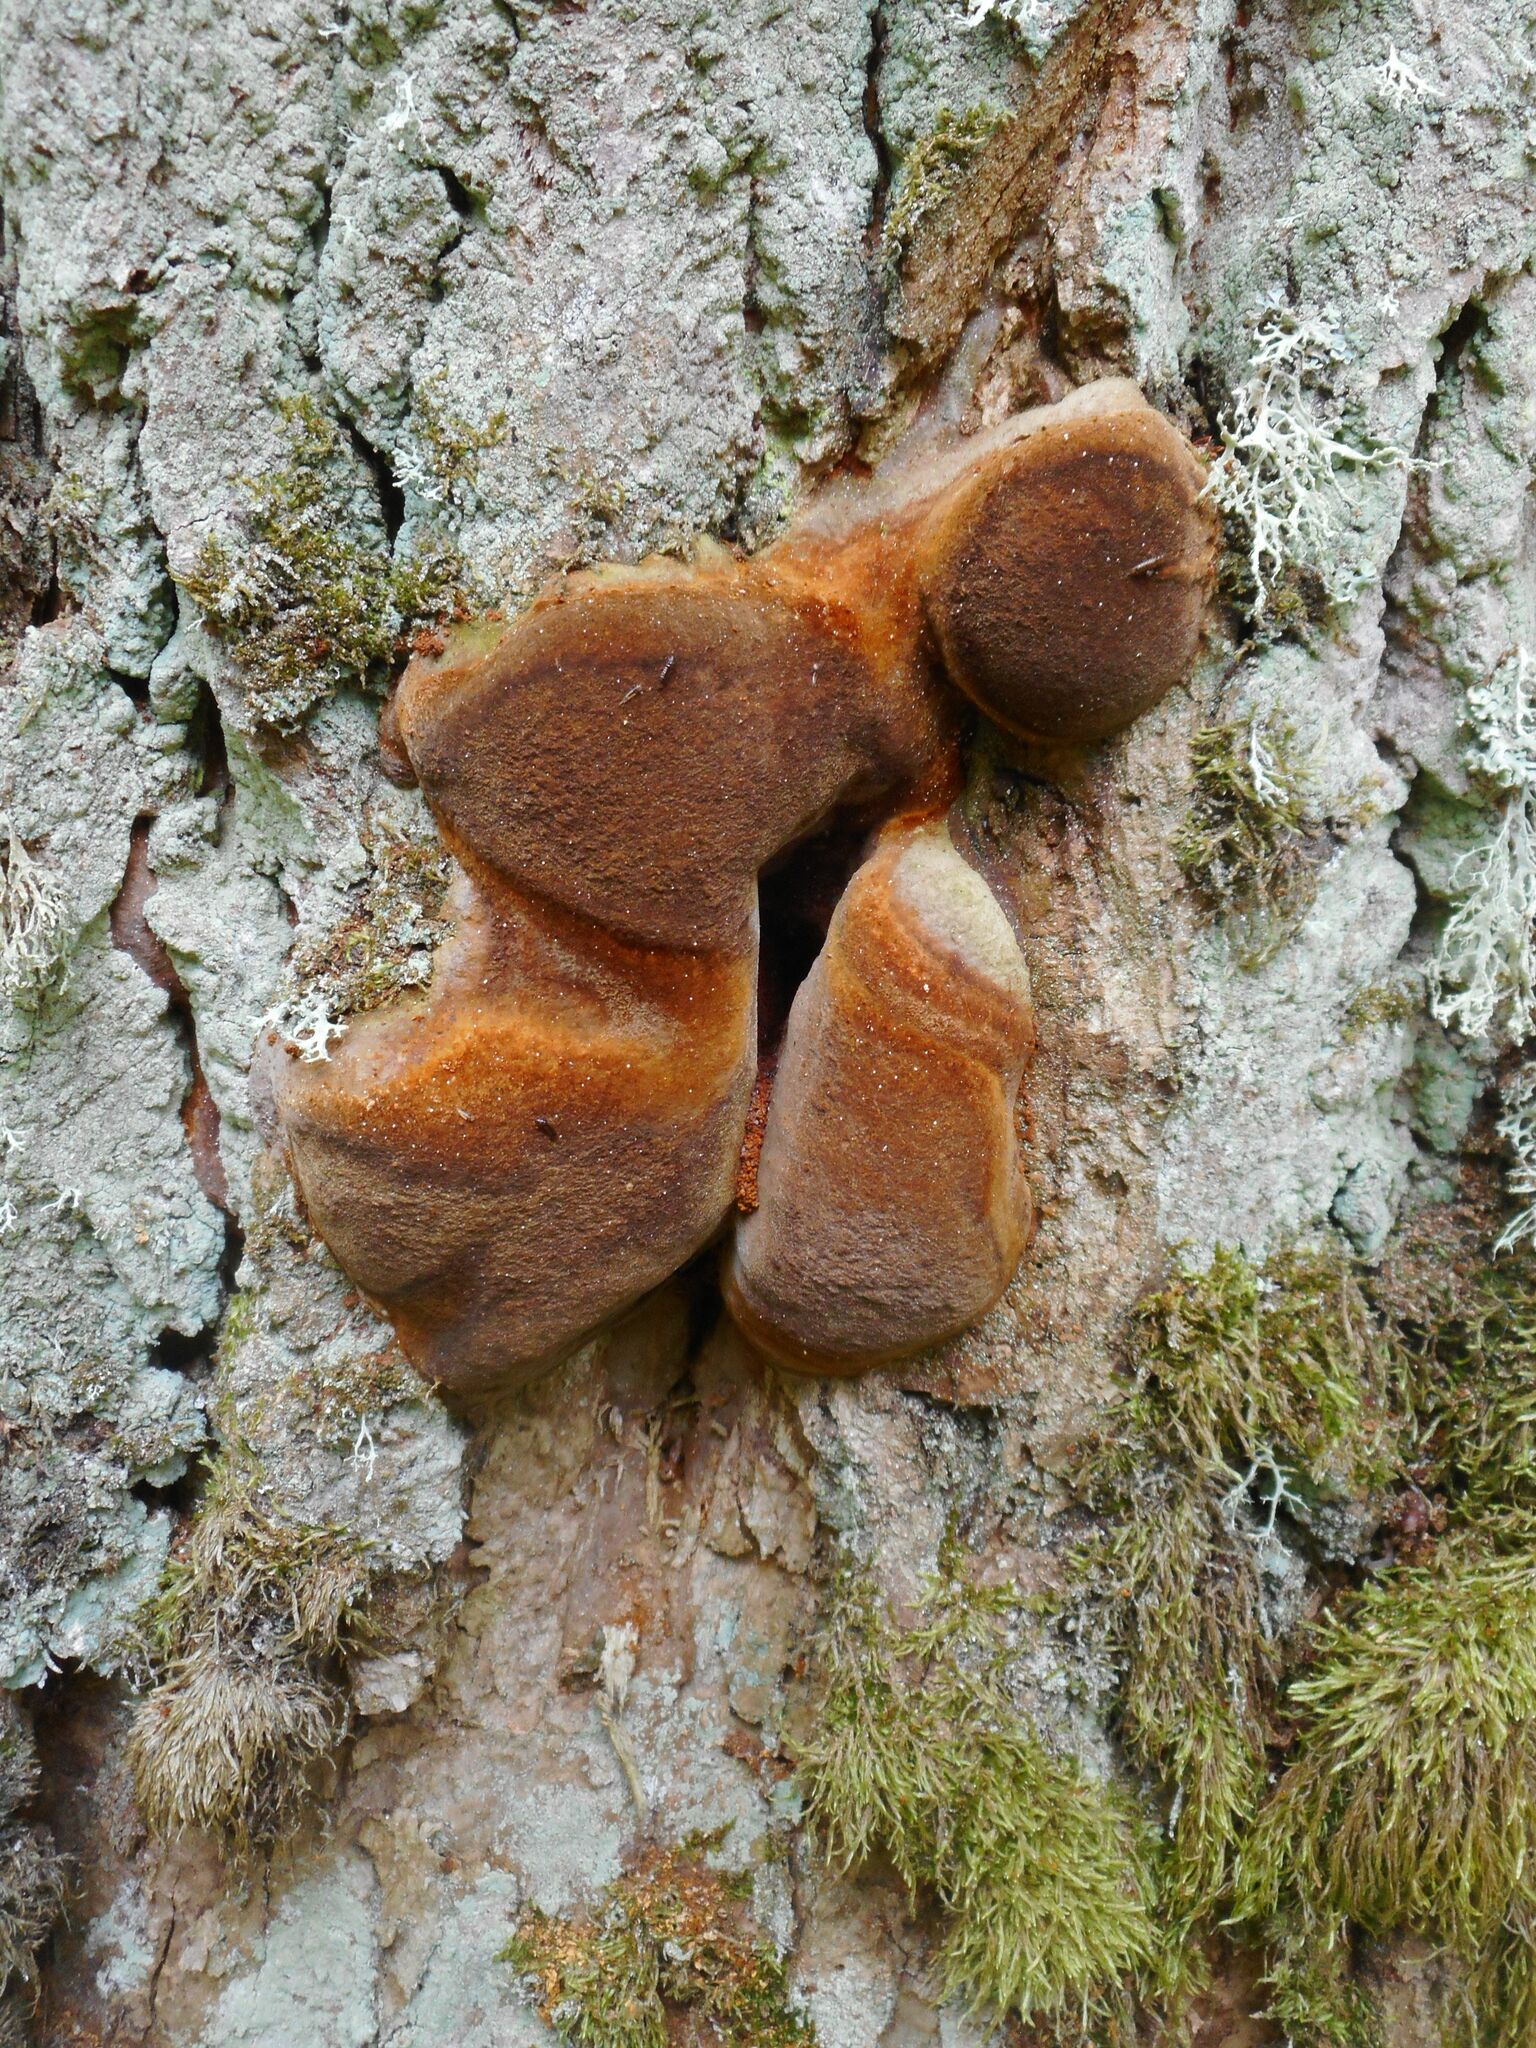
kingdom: Fungi
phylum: Basidiomycota
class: Agaricomycetes
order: Hymenochaetales
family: Hymenochaetaceae
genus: Fomitiporia
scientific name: Fomitiporia robusta
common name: Robust bracket
